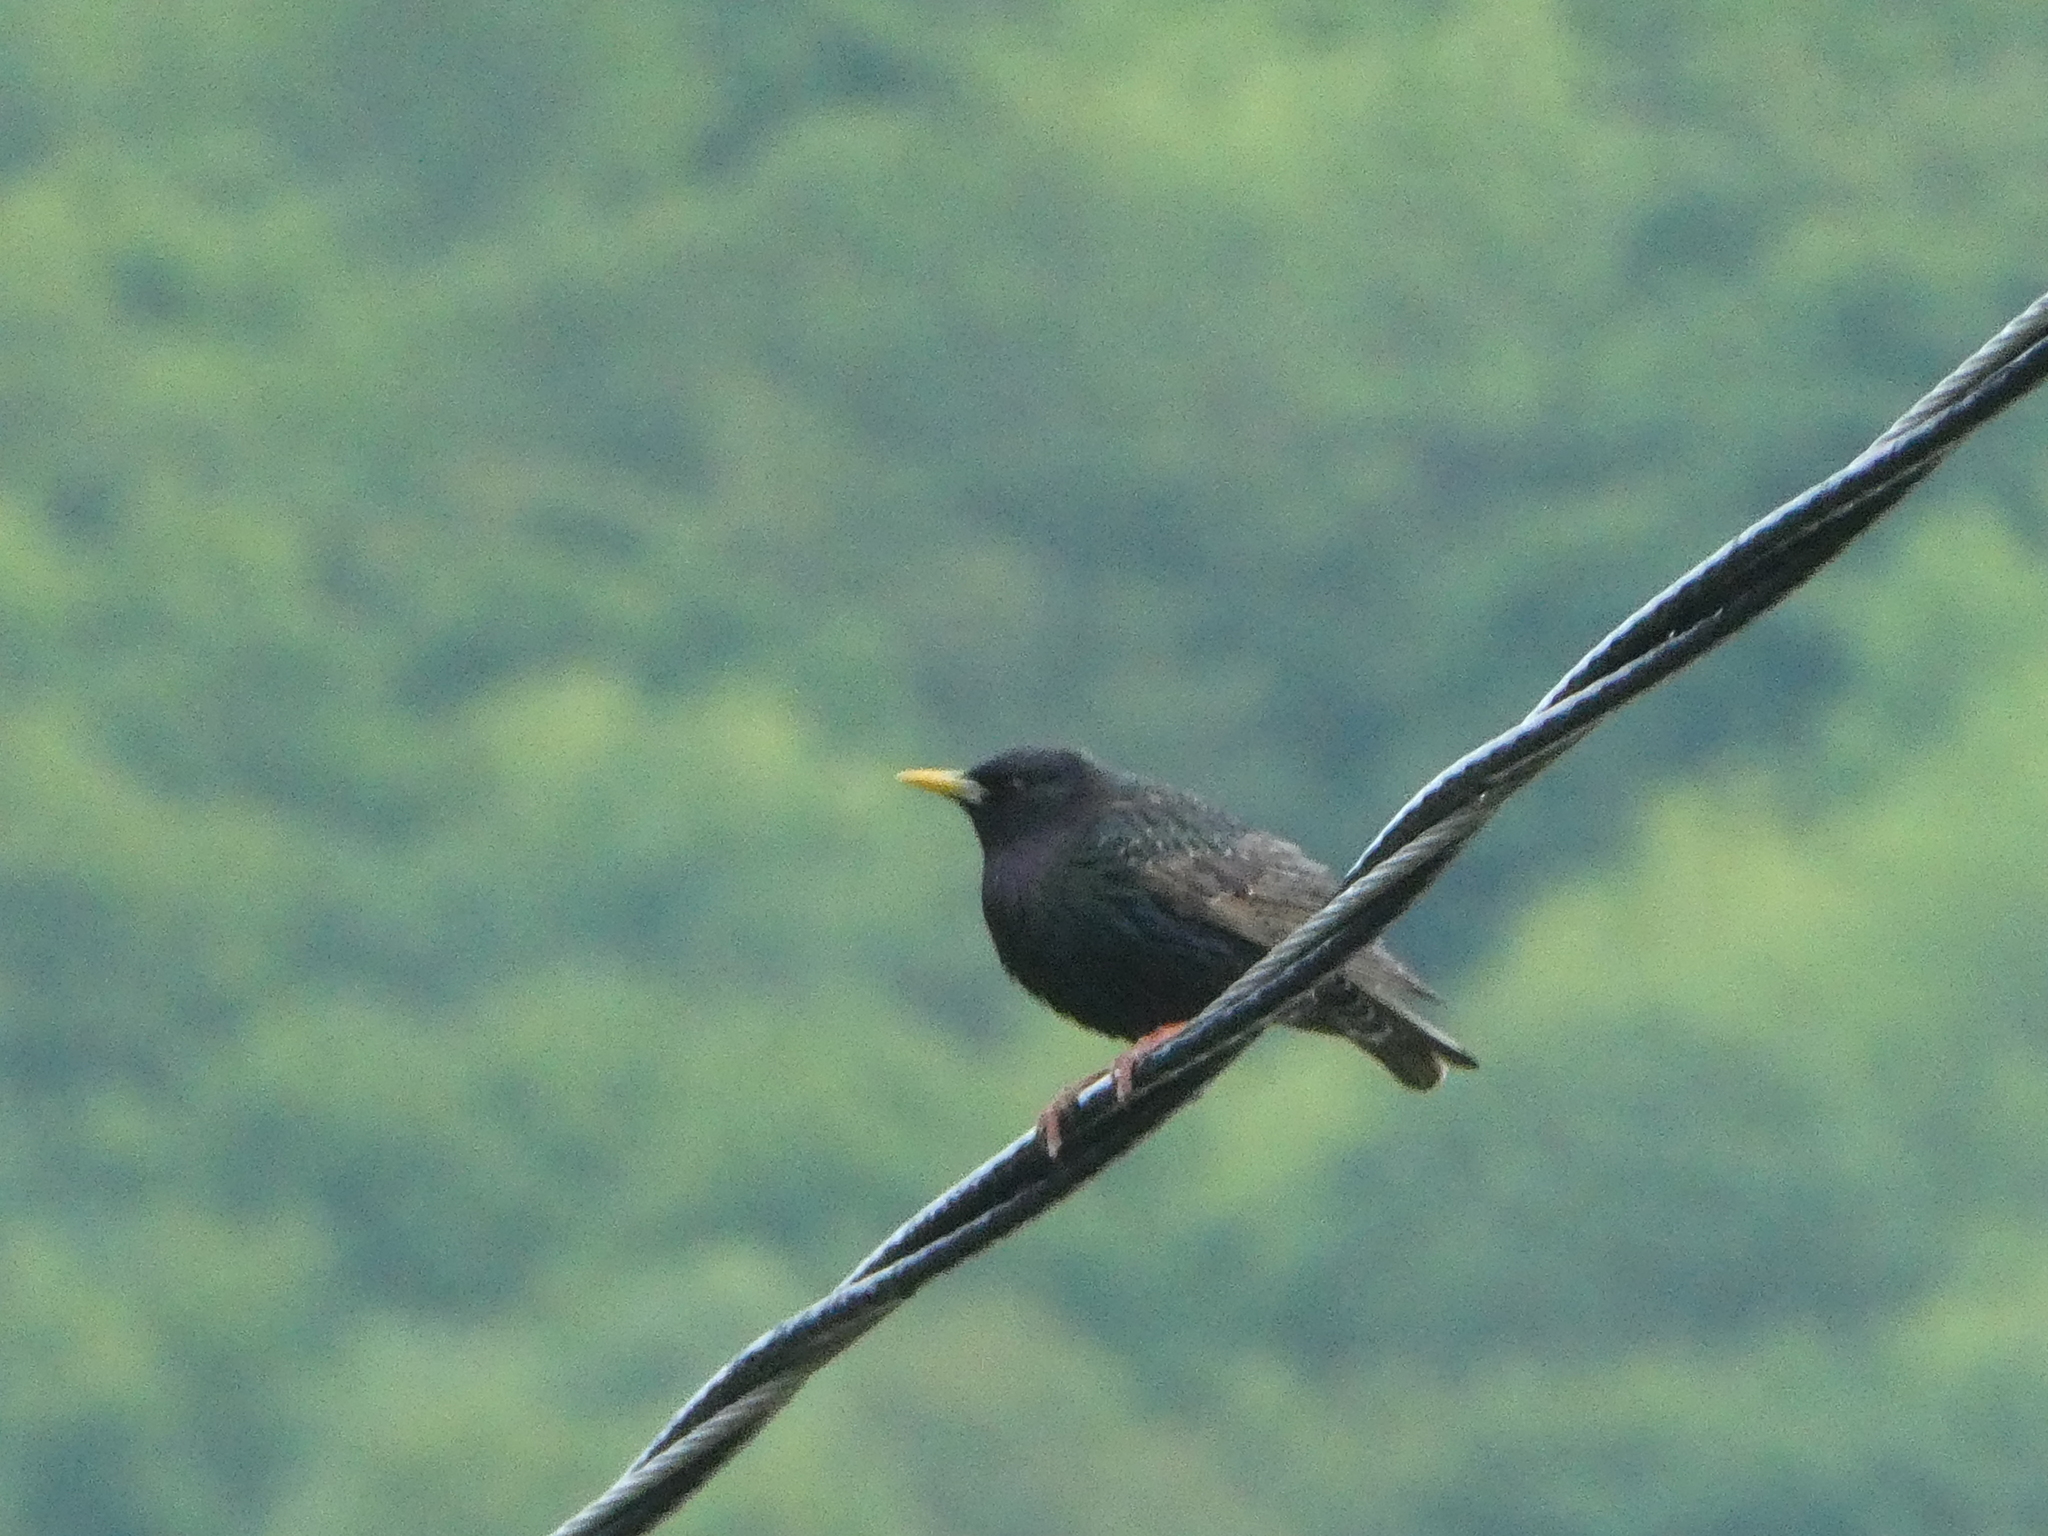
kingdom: Animalia
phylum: Chordata
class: Aves
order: Passeriformes
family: Sturnidae
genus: Sturnus
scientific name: Sturnus vulgaris
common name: Common starling
